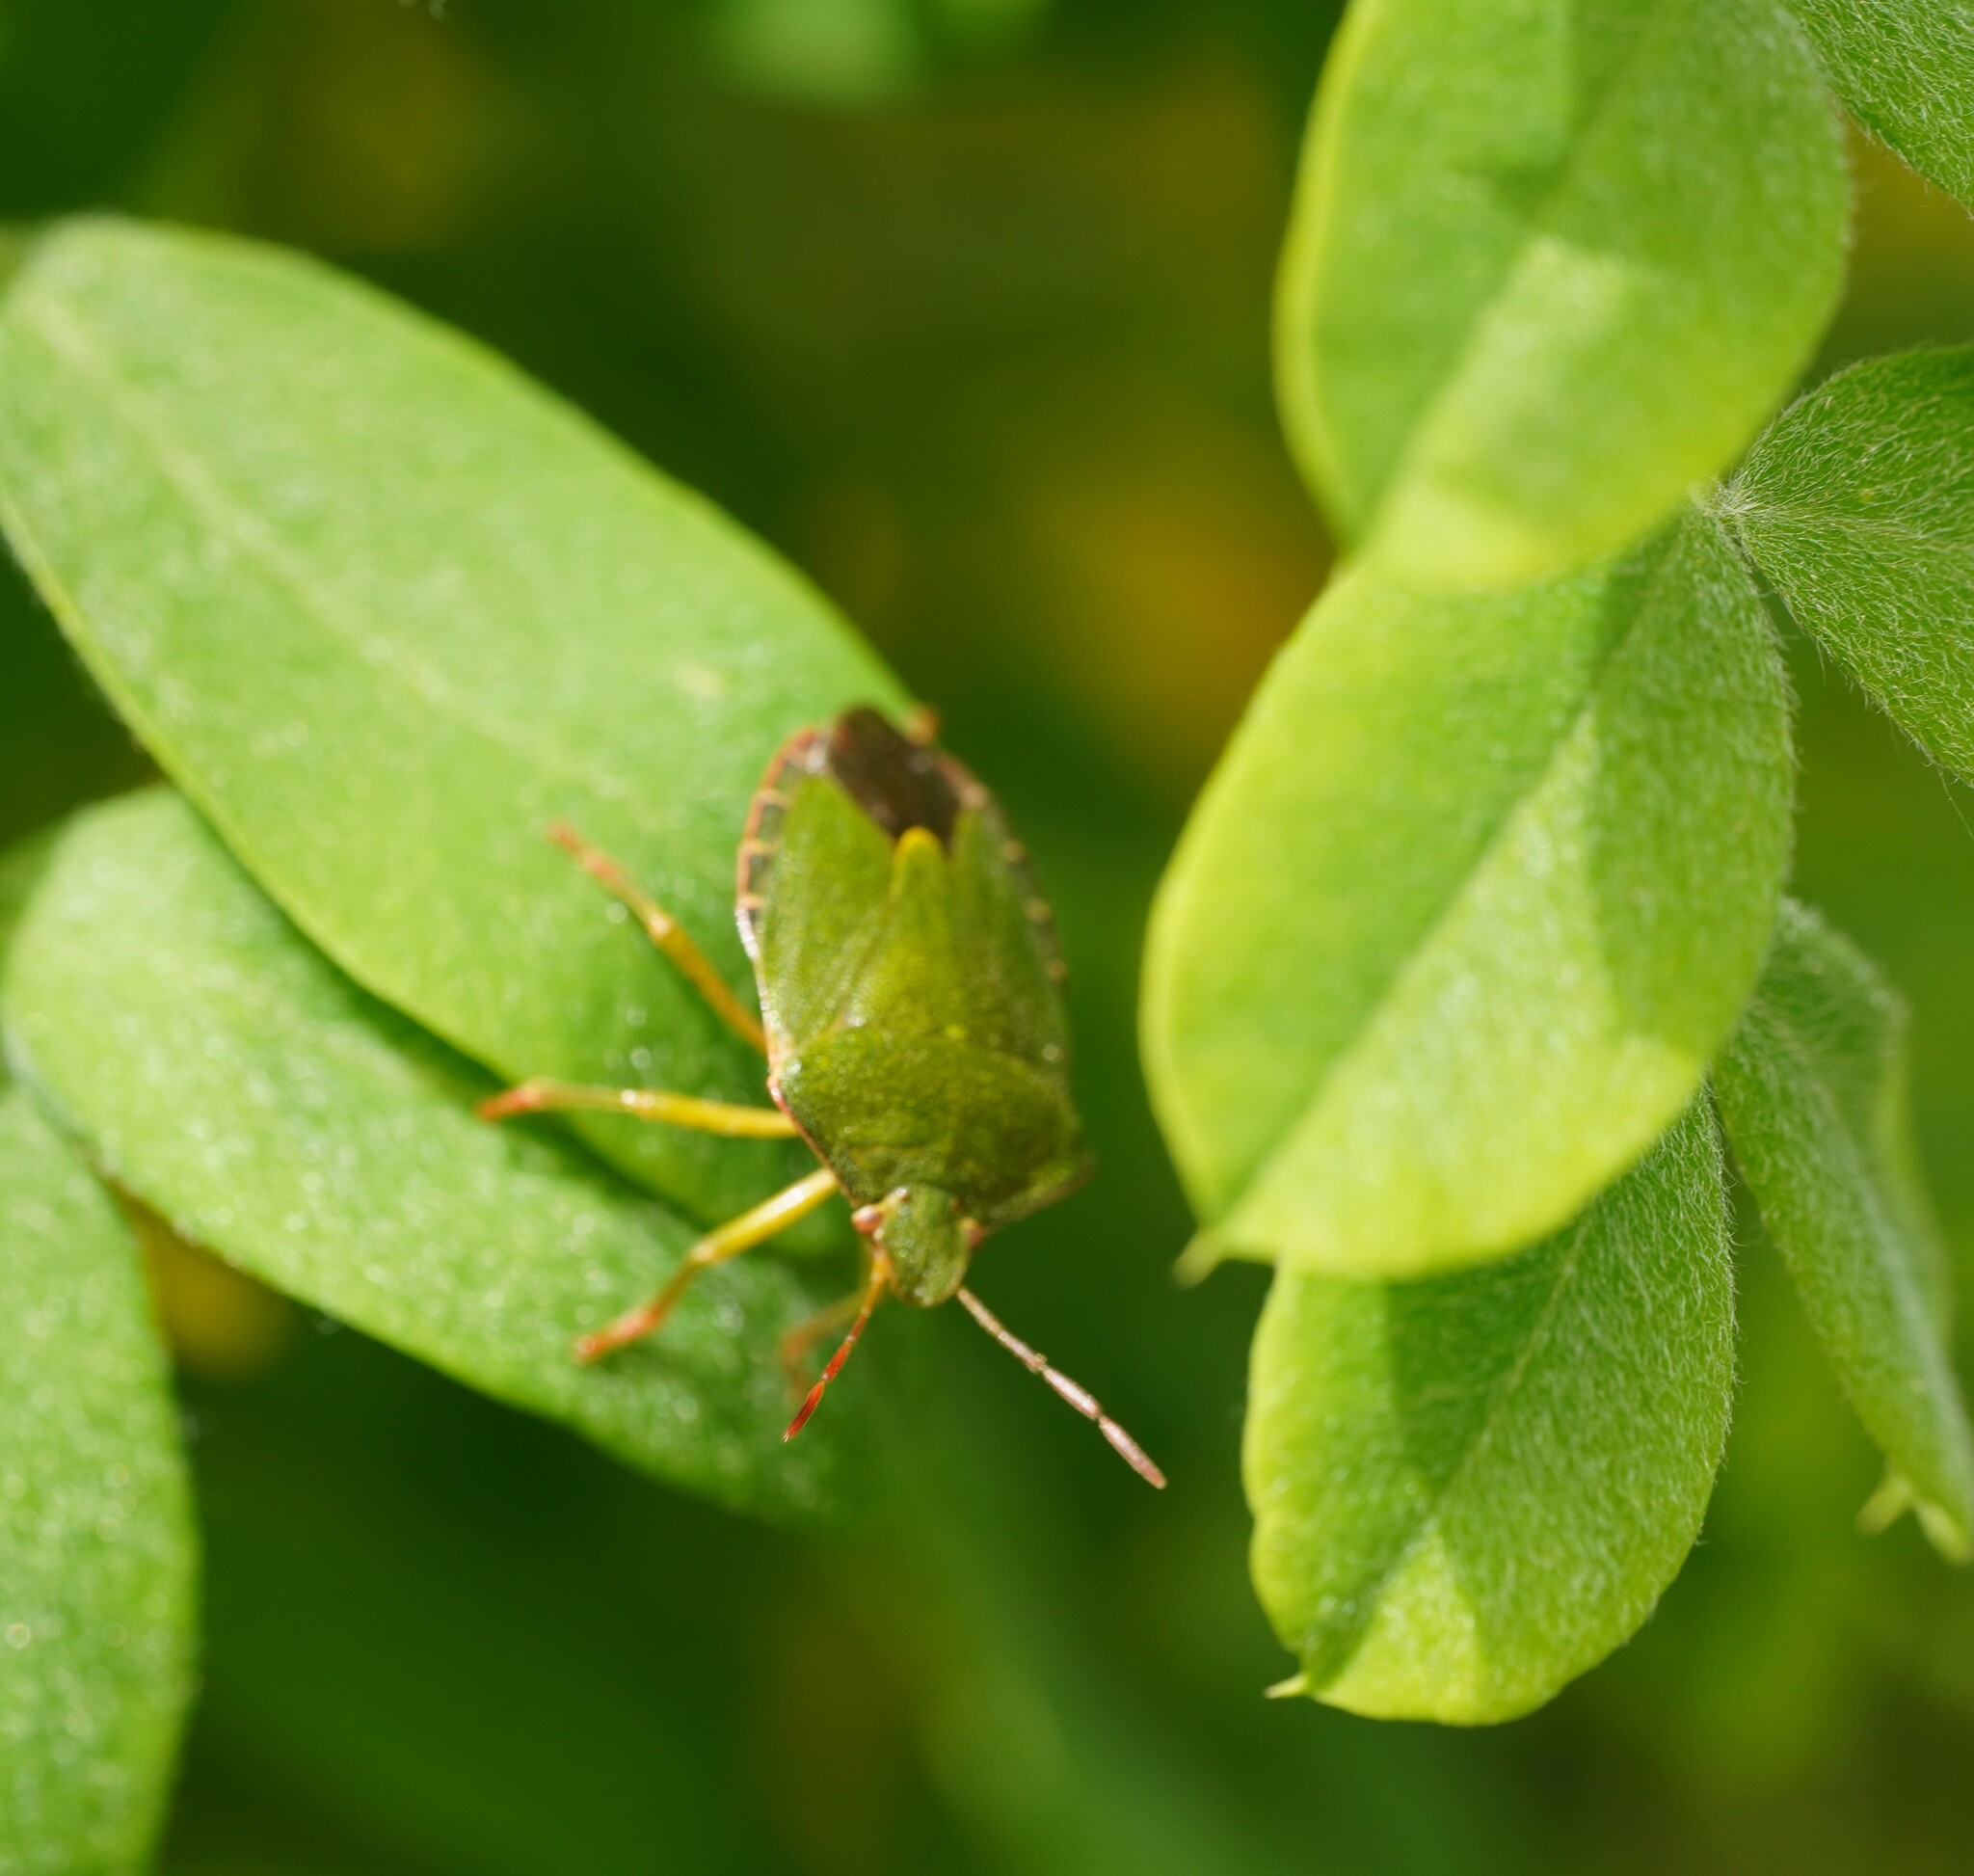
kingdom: Animalia
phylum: Arthropoda
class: Insecta
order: Hemiptera
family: Pentatomidae
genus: Palomena
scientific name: Palomena prasina
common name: Green shieldbug
